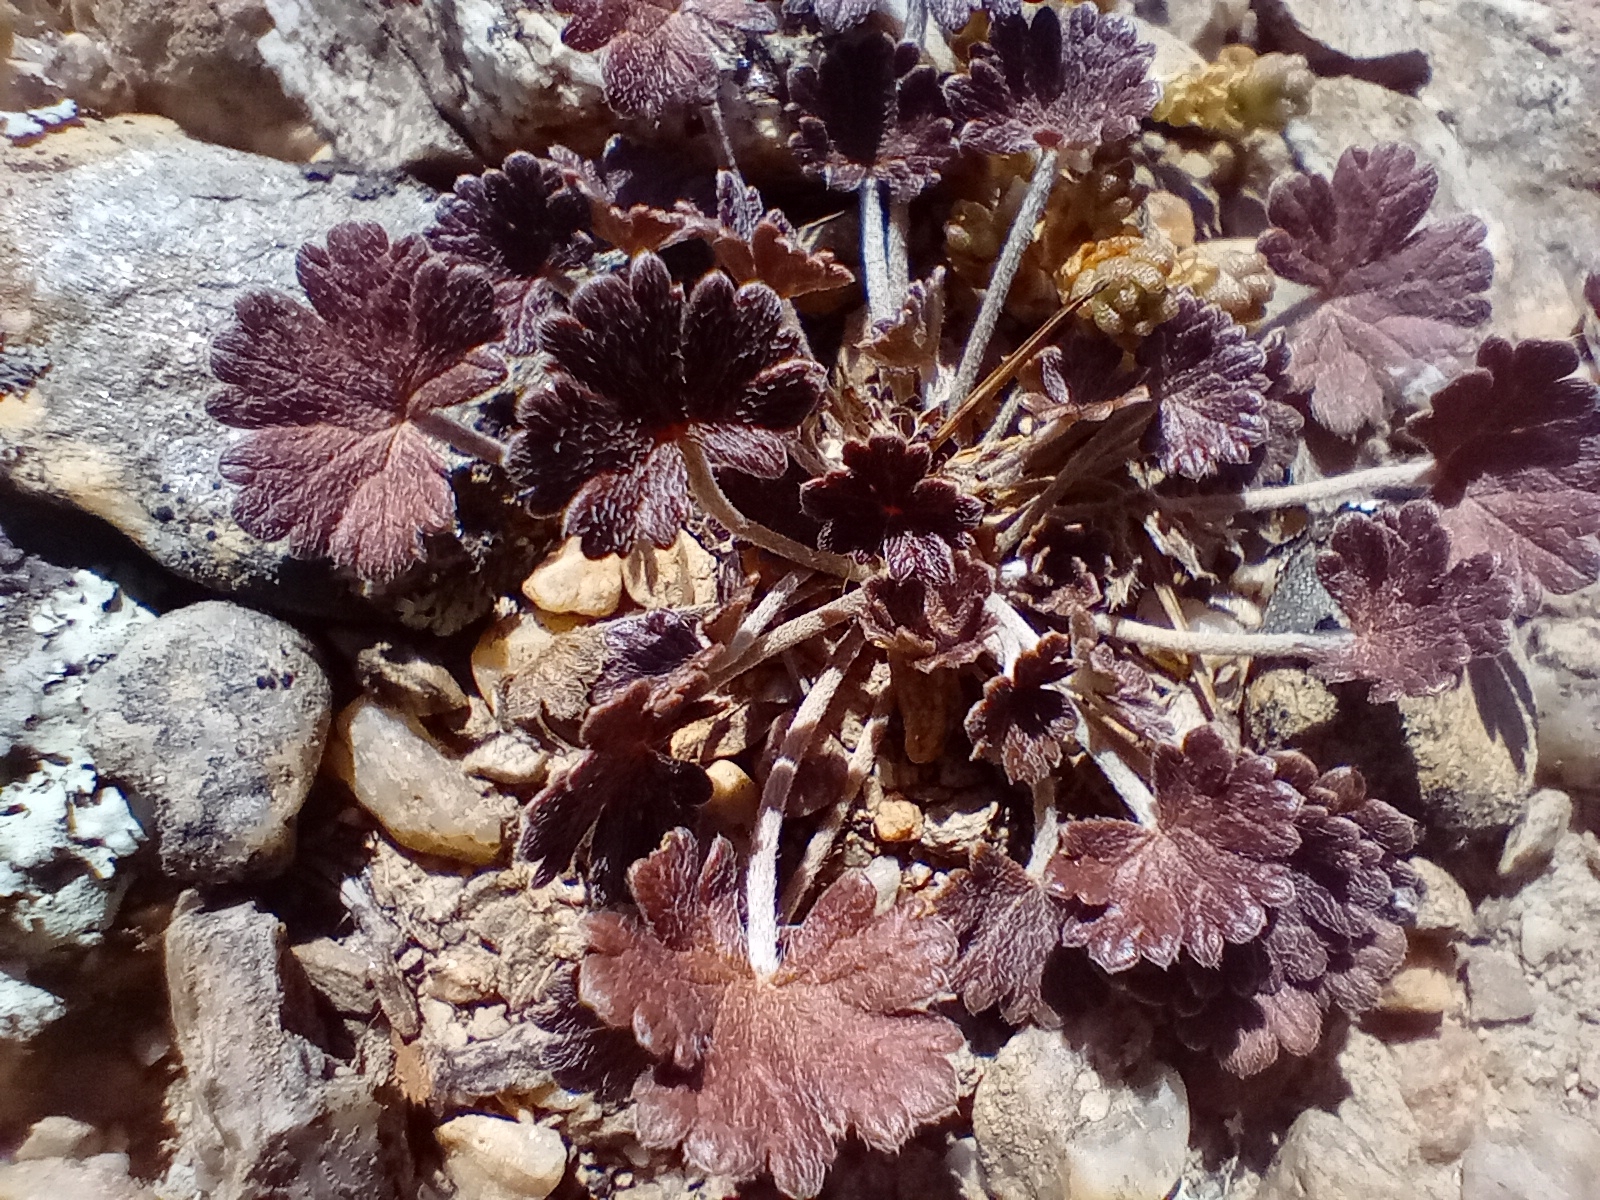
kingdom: Plantae
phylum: Tracheophyta
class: Magnoliopsida
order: Geraniales
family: Geraniaceae
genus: Geranium
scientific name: Geranium brevicaule
